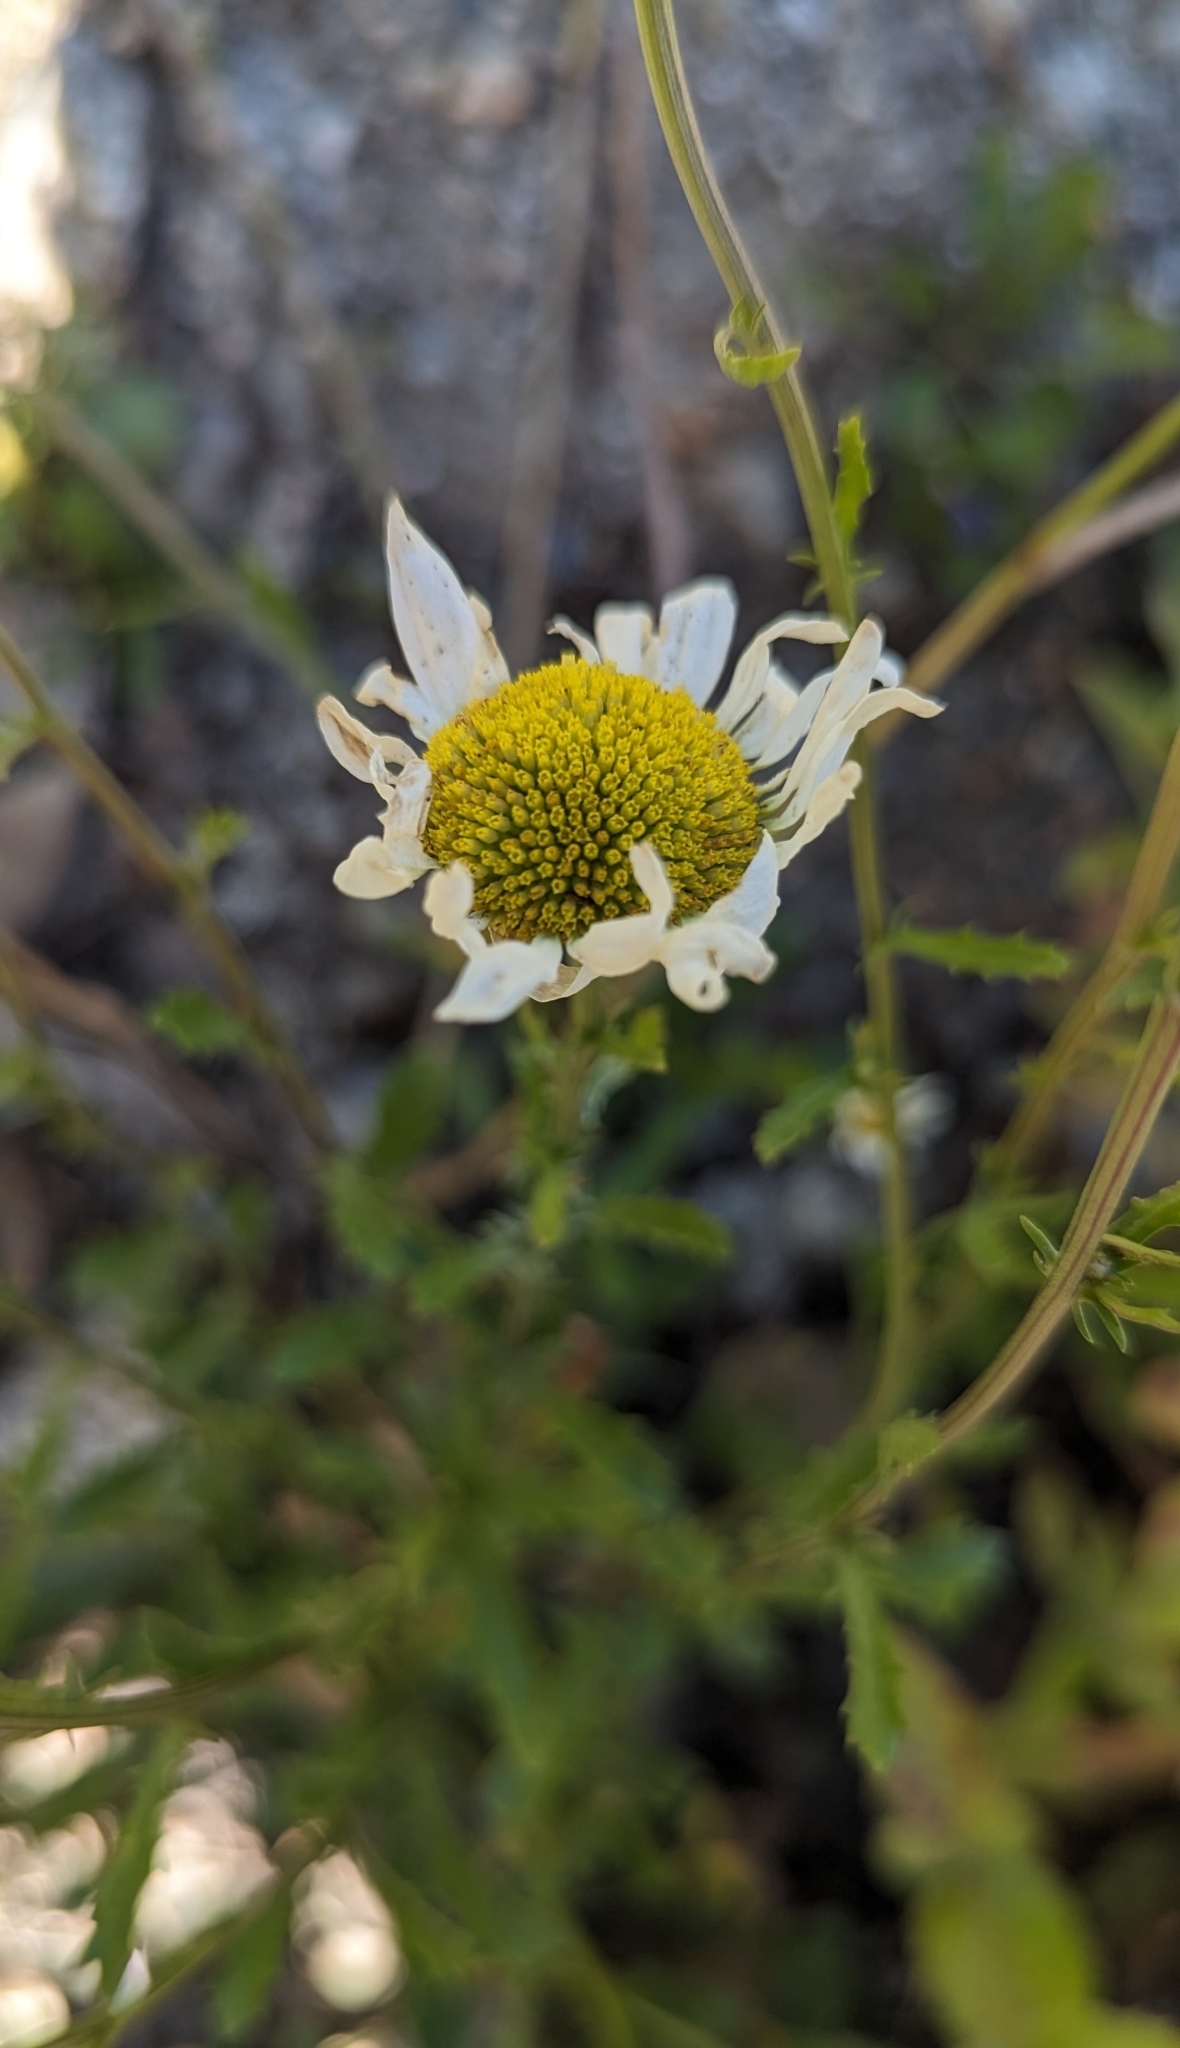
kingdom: Plantae
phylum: Tracheophyta
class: Magnoliopsida
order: Asterales
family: Asteraceae
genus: Leucanthemum
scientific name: Leucanthemum vulgare
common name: Oxeye daisy
